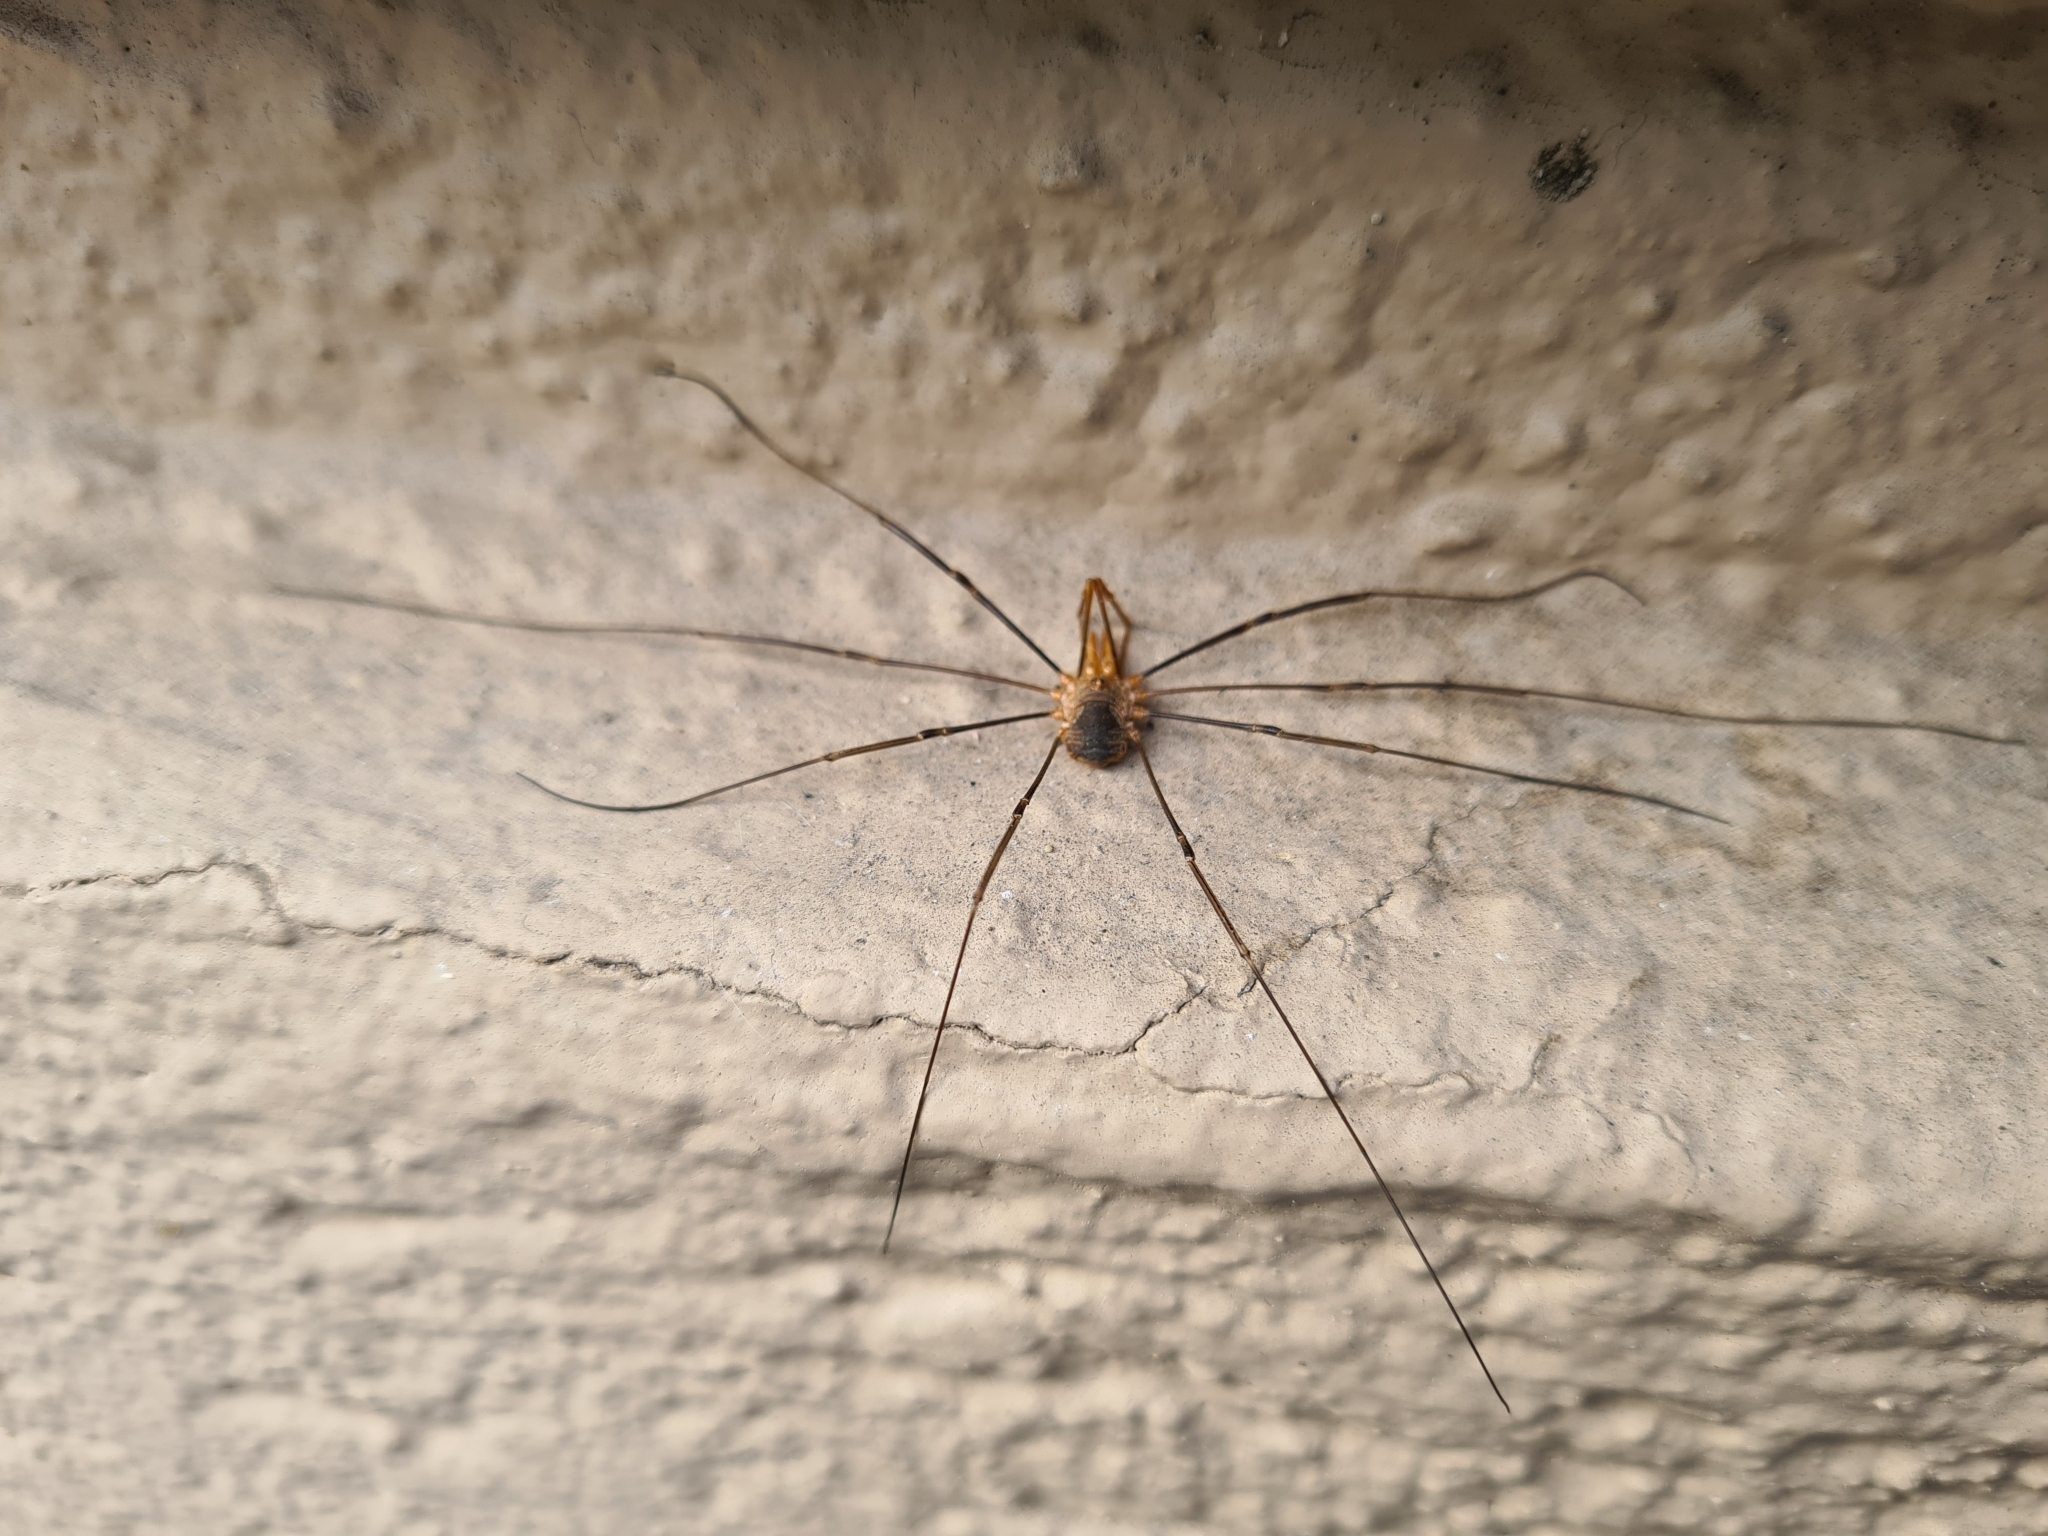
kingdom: Animalia
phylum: Arthropoda
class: Arachnida
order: Opiliones
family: Phalangiidae
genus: Phalangium
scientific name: Phalangium opilio
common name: Daddy longleg
